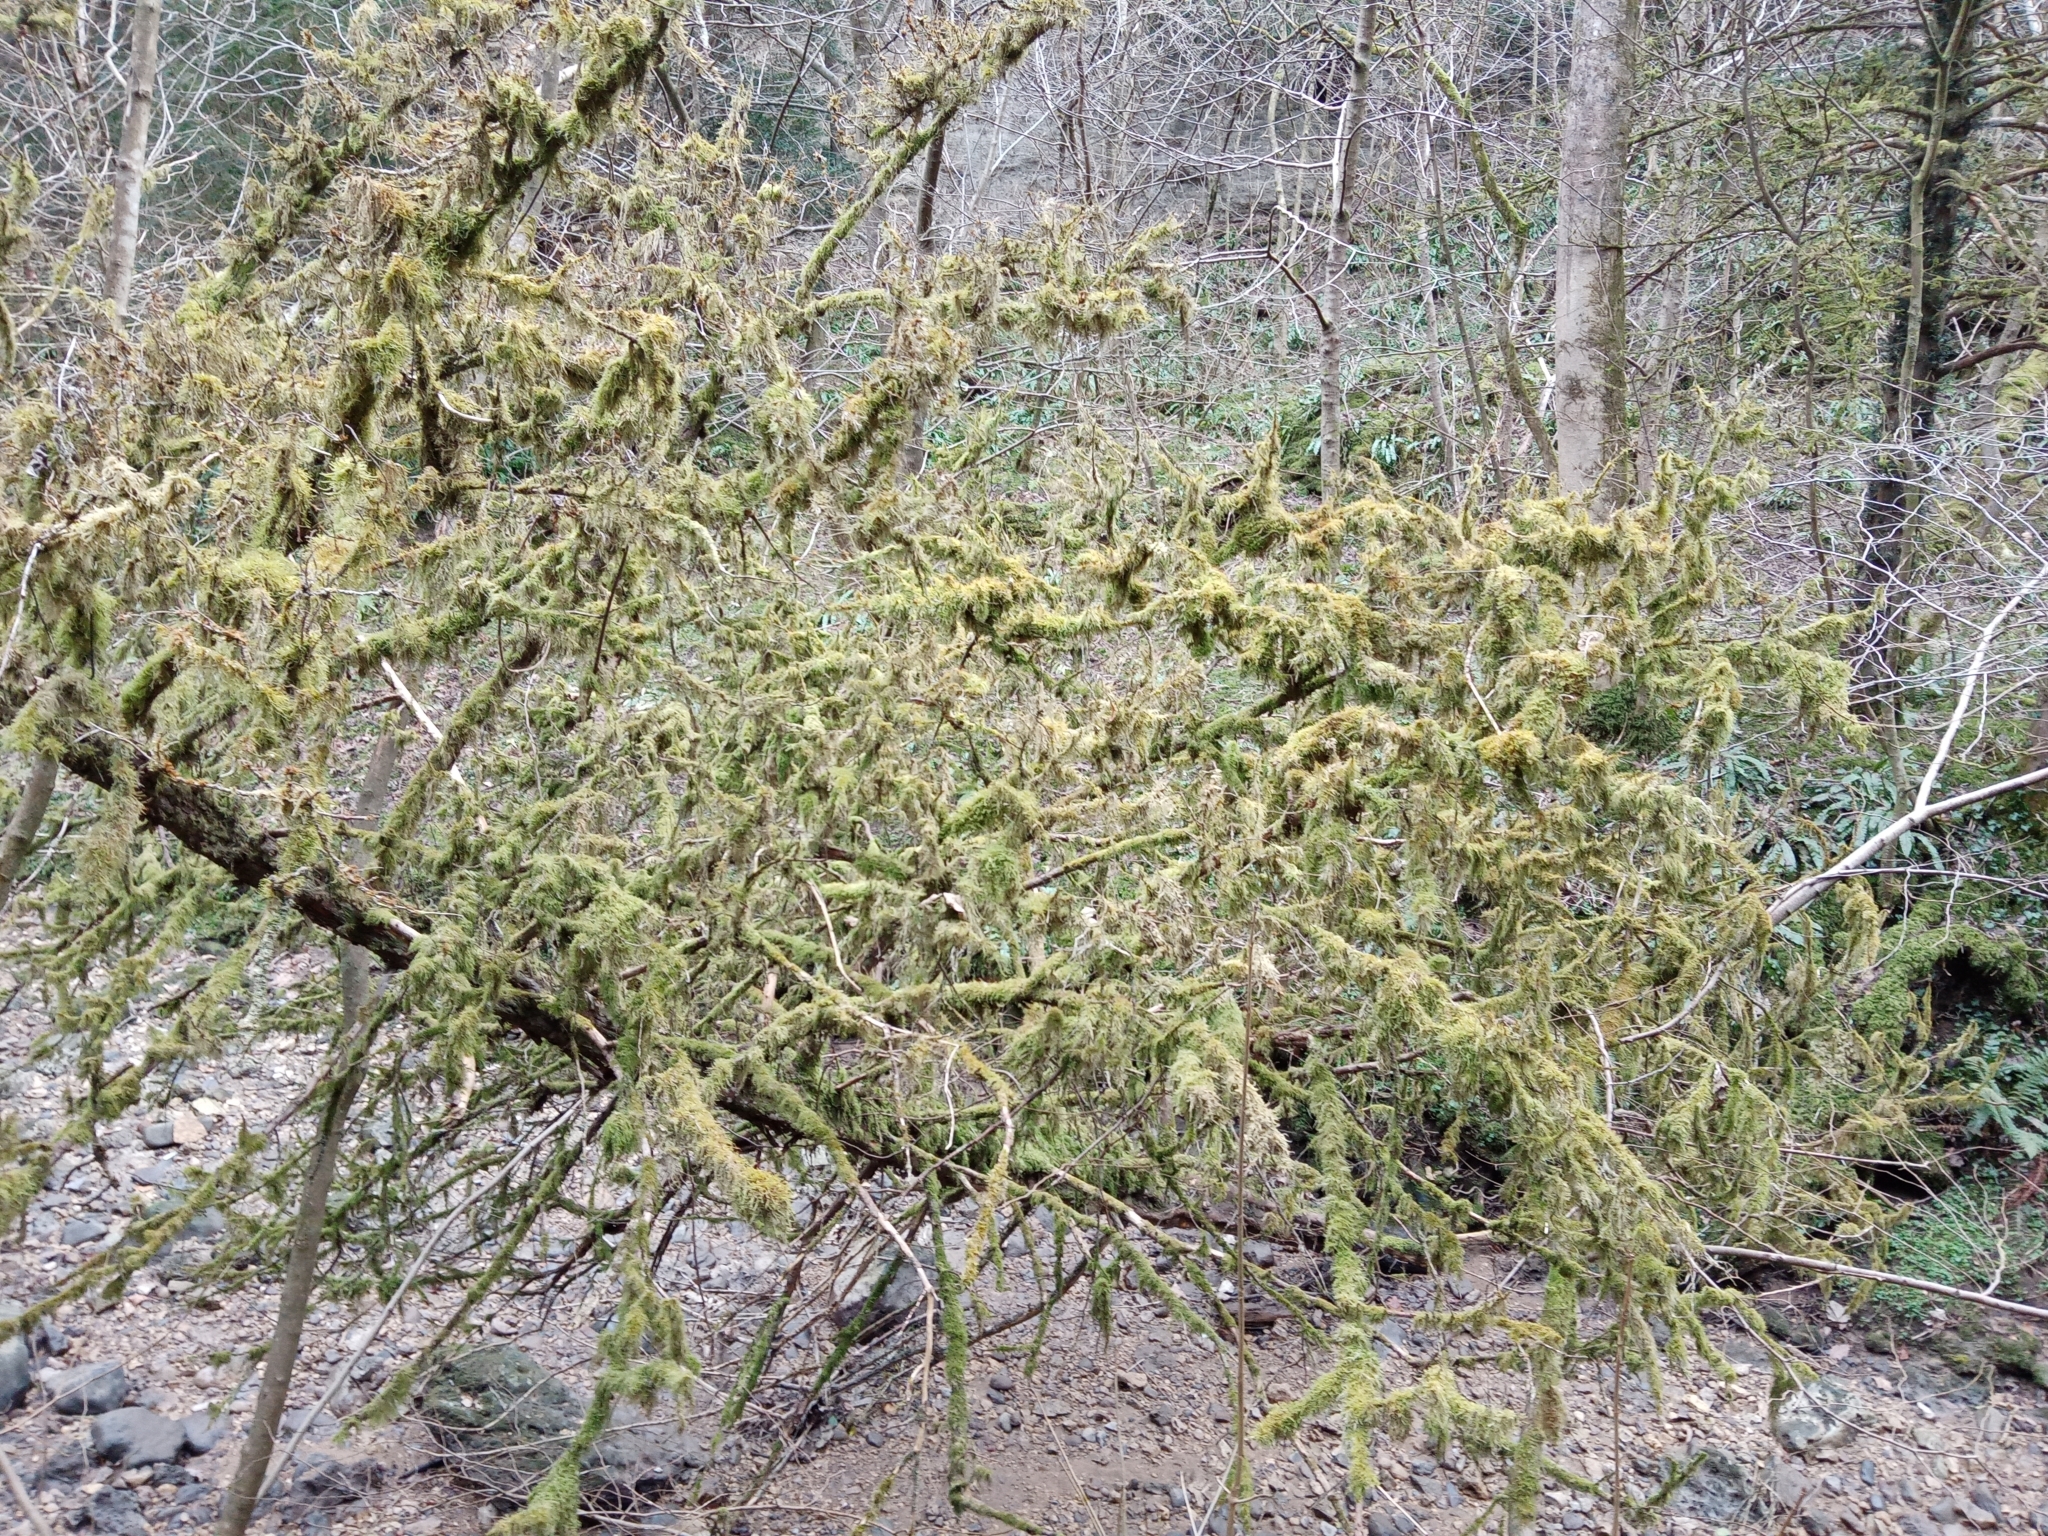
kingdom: Plantae
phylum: Bryophyta
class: Bryopsida
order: Hypnales
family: Hypnaceae
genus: Hypnum
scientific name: Hypnum cupressiforme
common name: Cypress-leaved plait-moss
